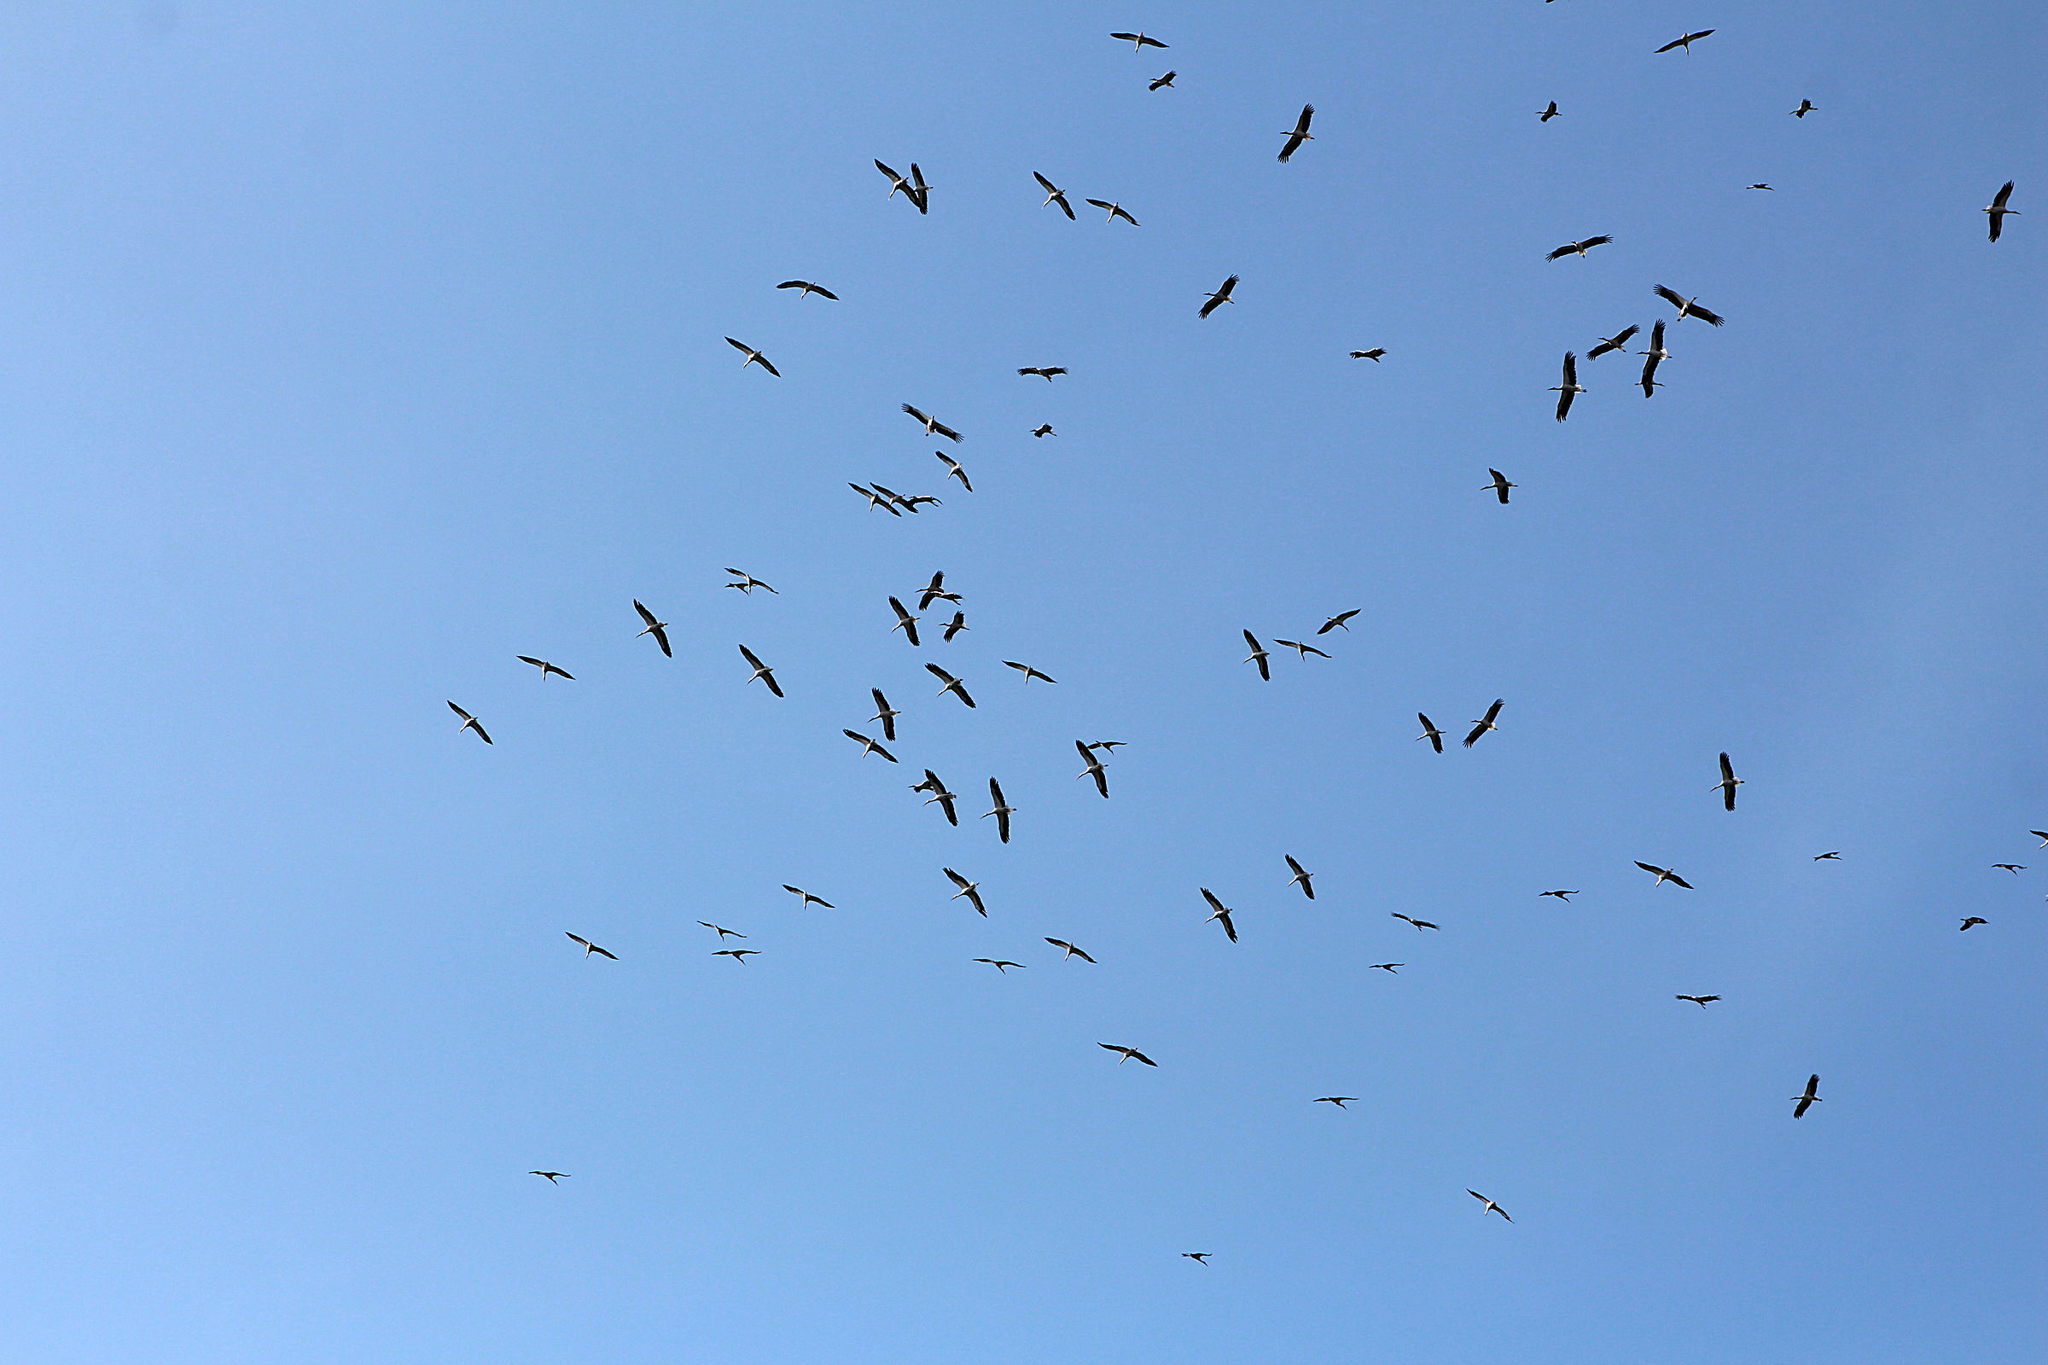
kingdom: Animalia
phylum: Chordata
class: Aves
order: Ciconiiformes
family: Ciconiidae
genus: Ciconia
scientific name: Ciconia ciconia
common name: White stork
